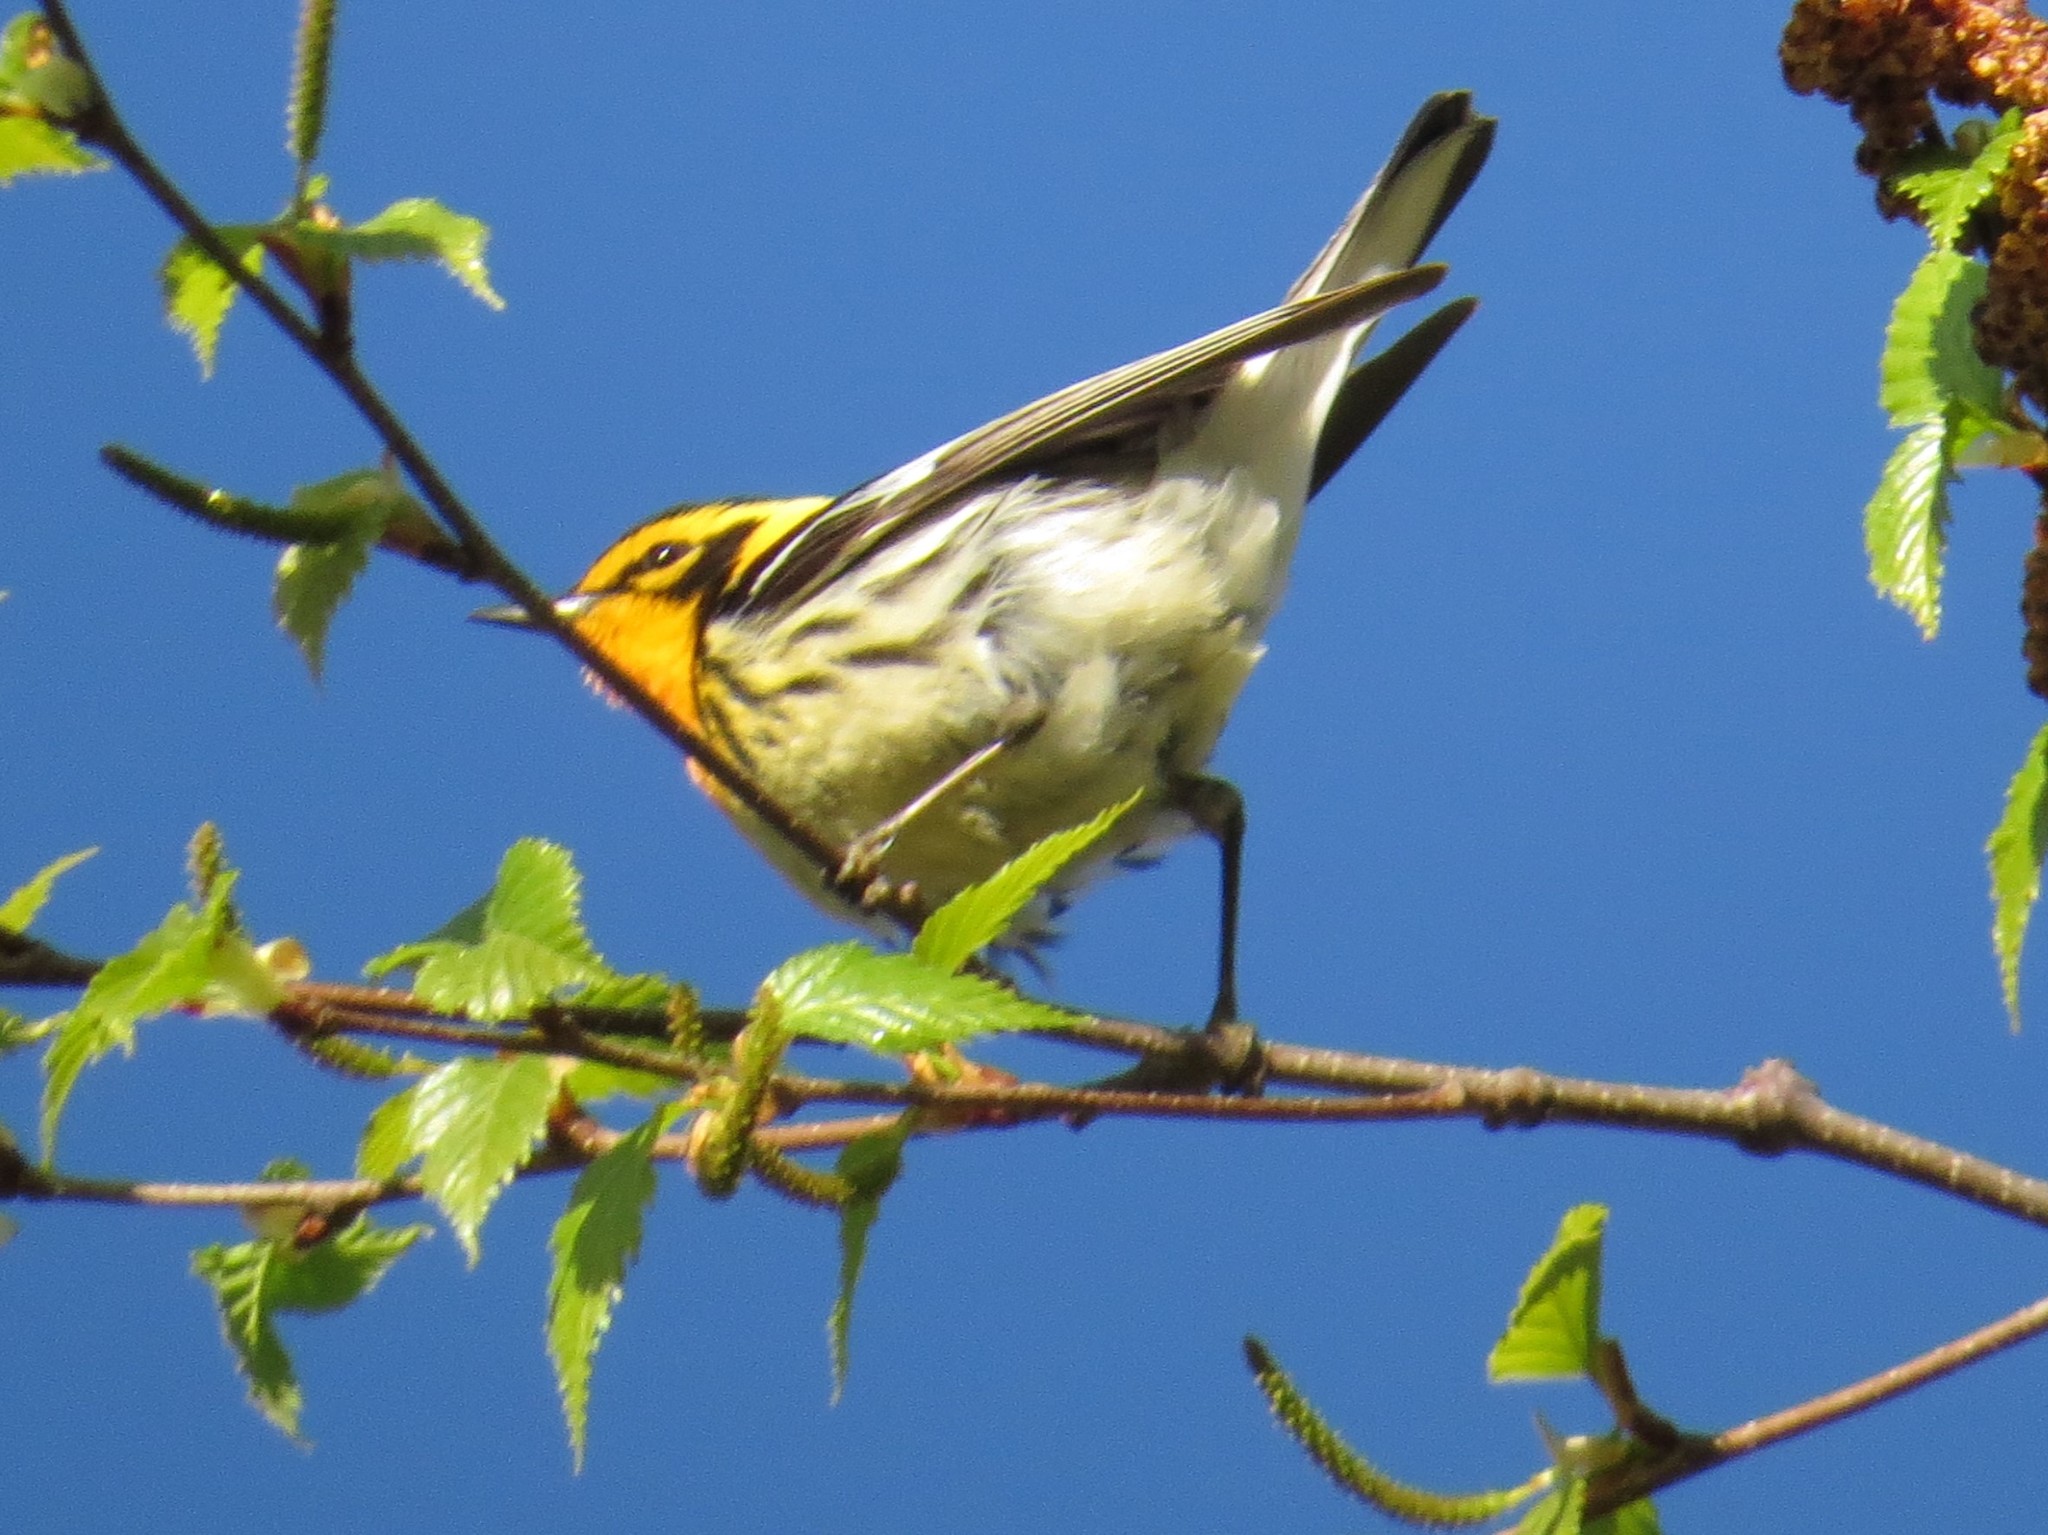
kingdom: Animalia
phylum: Chordata
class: Aves
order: Passeriformes
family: Parulidae
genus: Setophaga
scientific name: Setophaga fusca
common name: Blackburnian warbler
